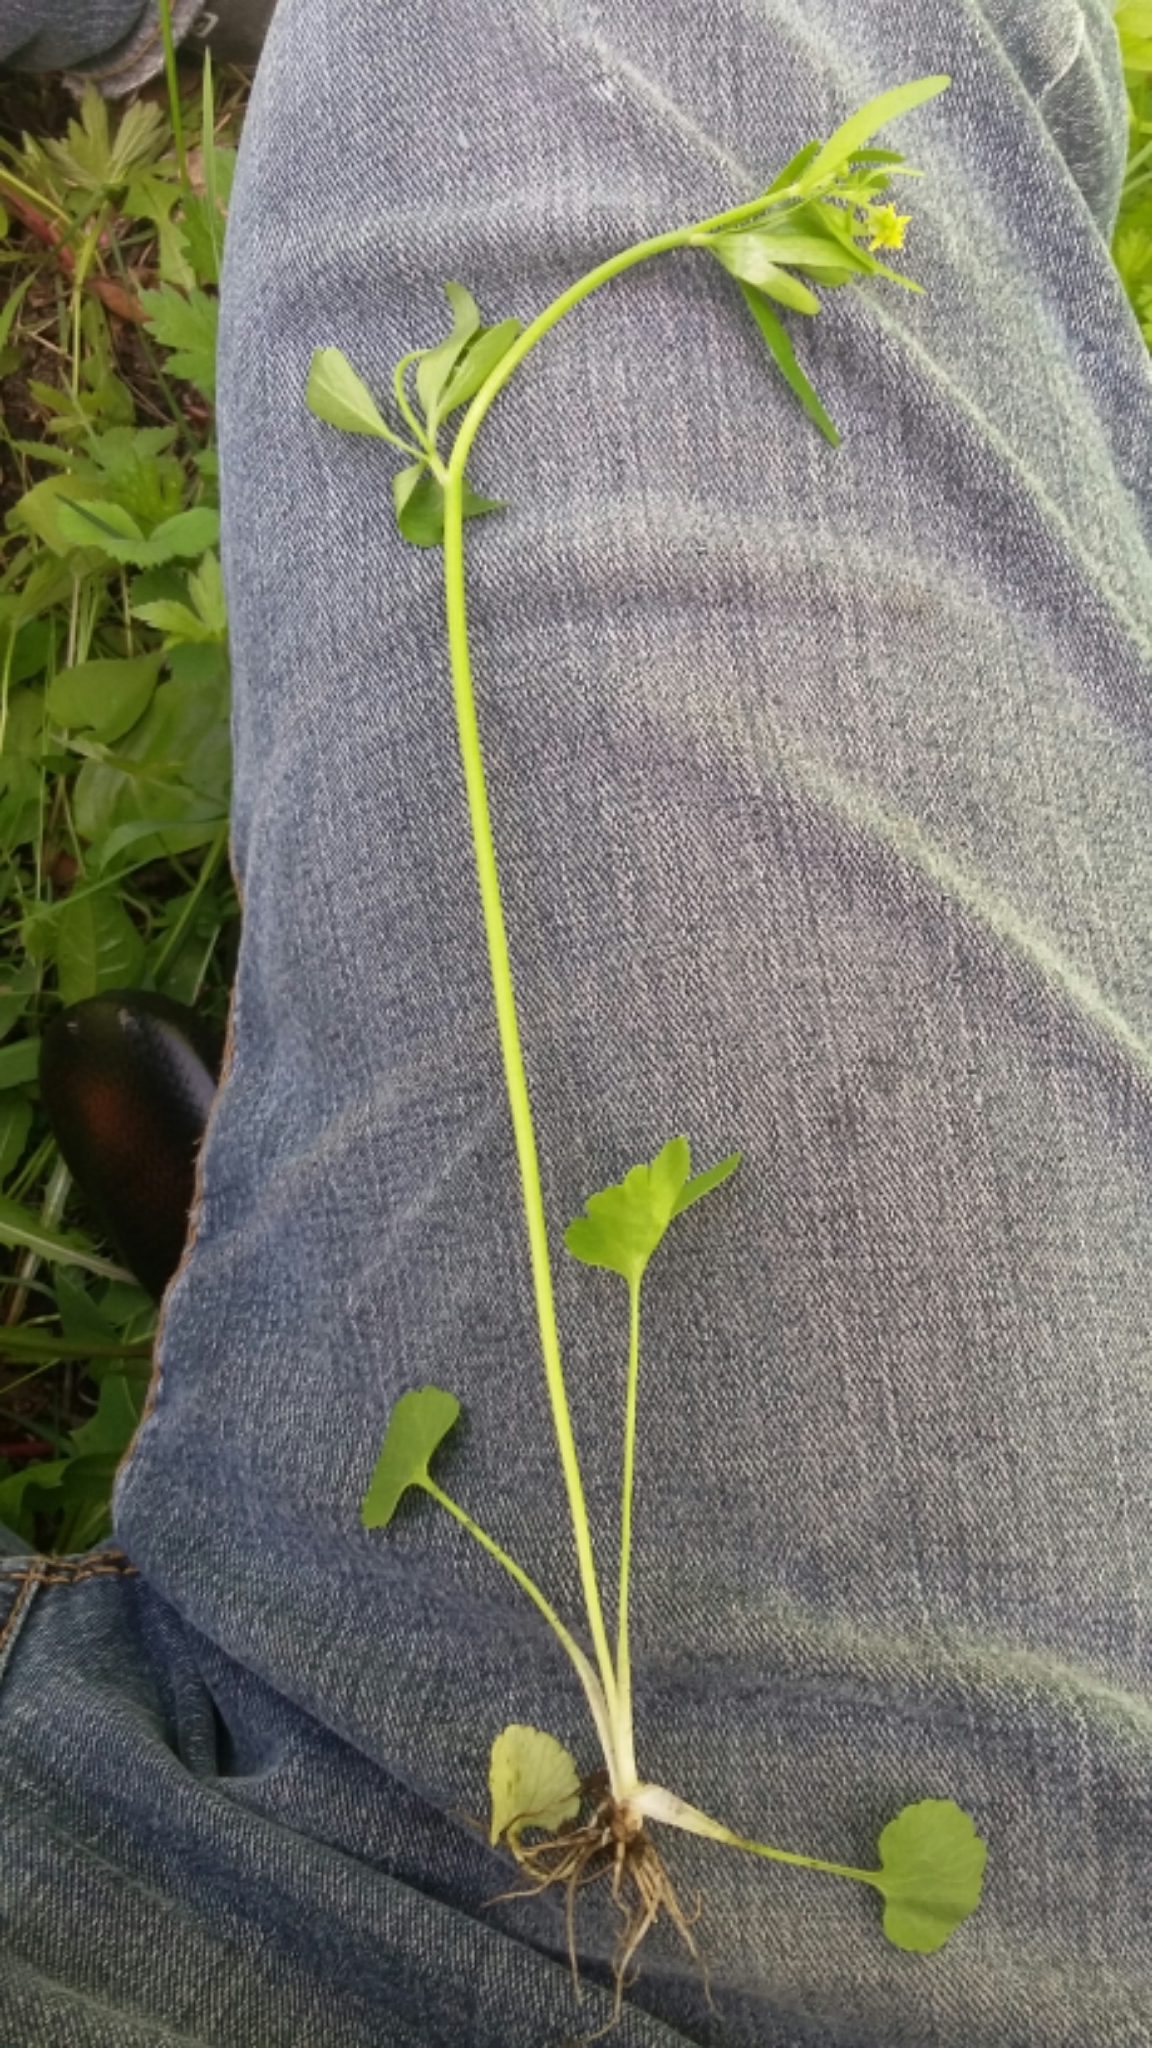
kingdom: Plantae
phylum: Tracheophyta
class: Magnoliopsida
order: Ranunculales
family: Ranunculaceae
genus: Ranunculus
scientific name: Ranunculus abortivus
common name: Early wood buttercup
